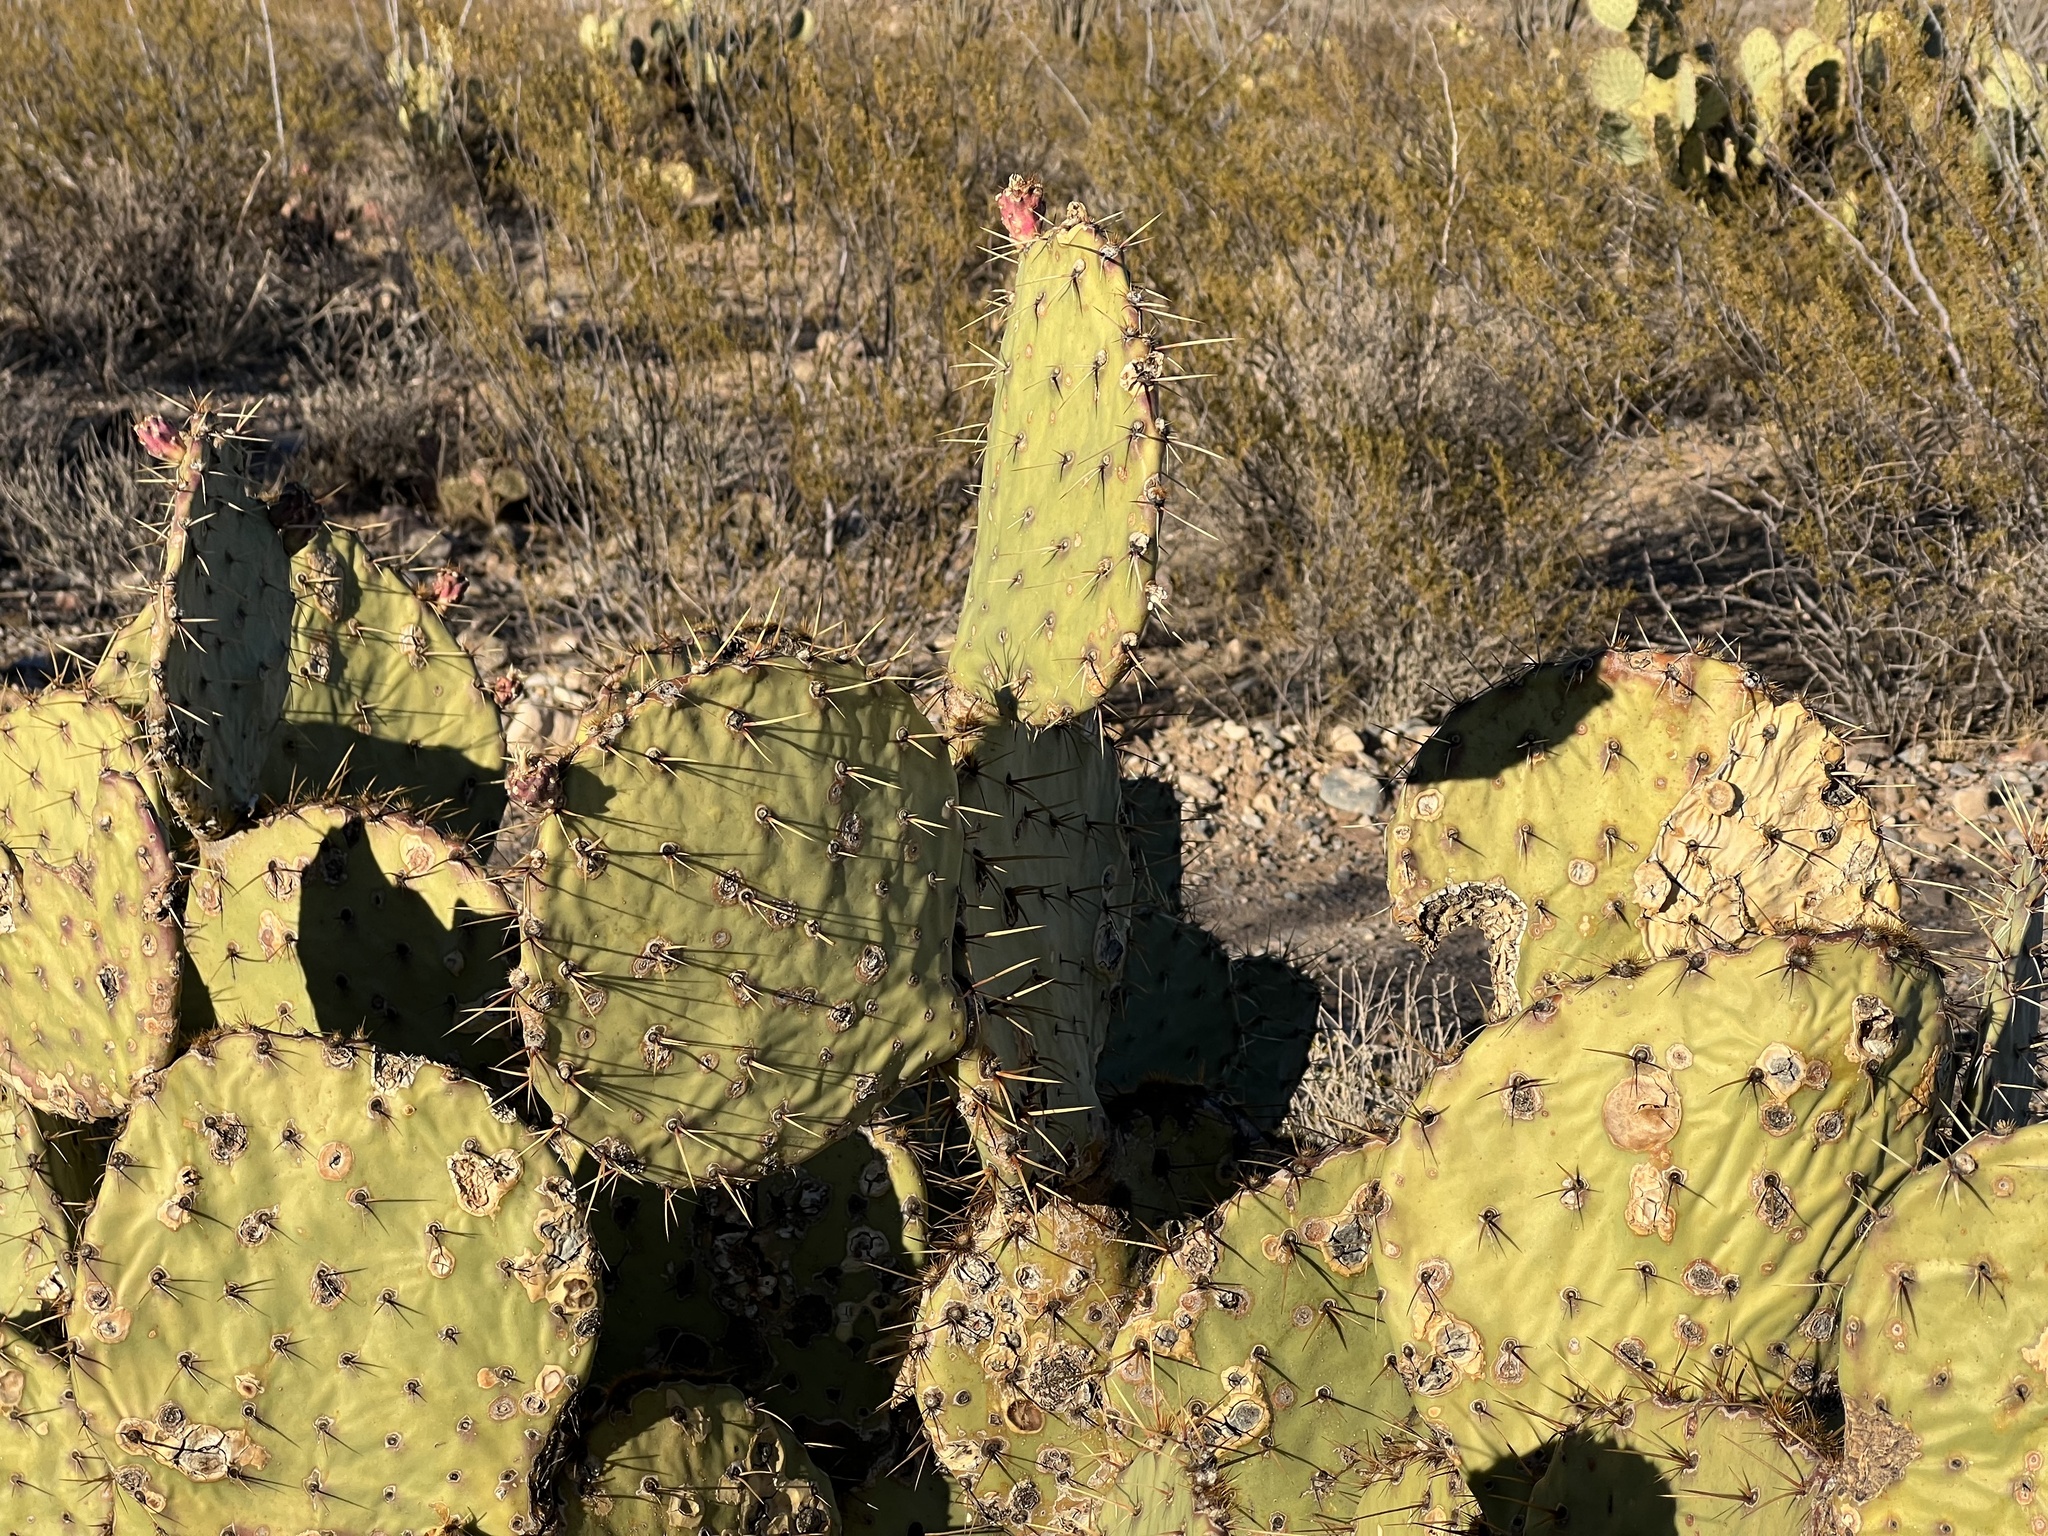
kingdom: Plantae
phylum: Tracheophyta
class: Magnoliopsida
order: Caryophyllales
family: Cactaceae
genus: Opuntia
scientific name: Opuntia engelmannii
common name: Cactus-apple
